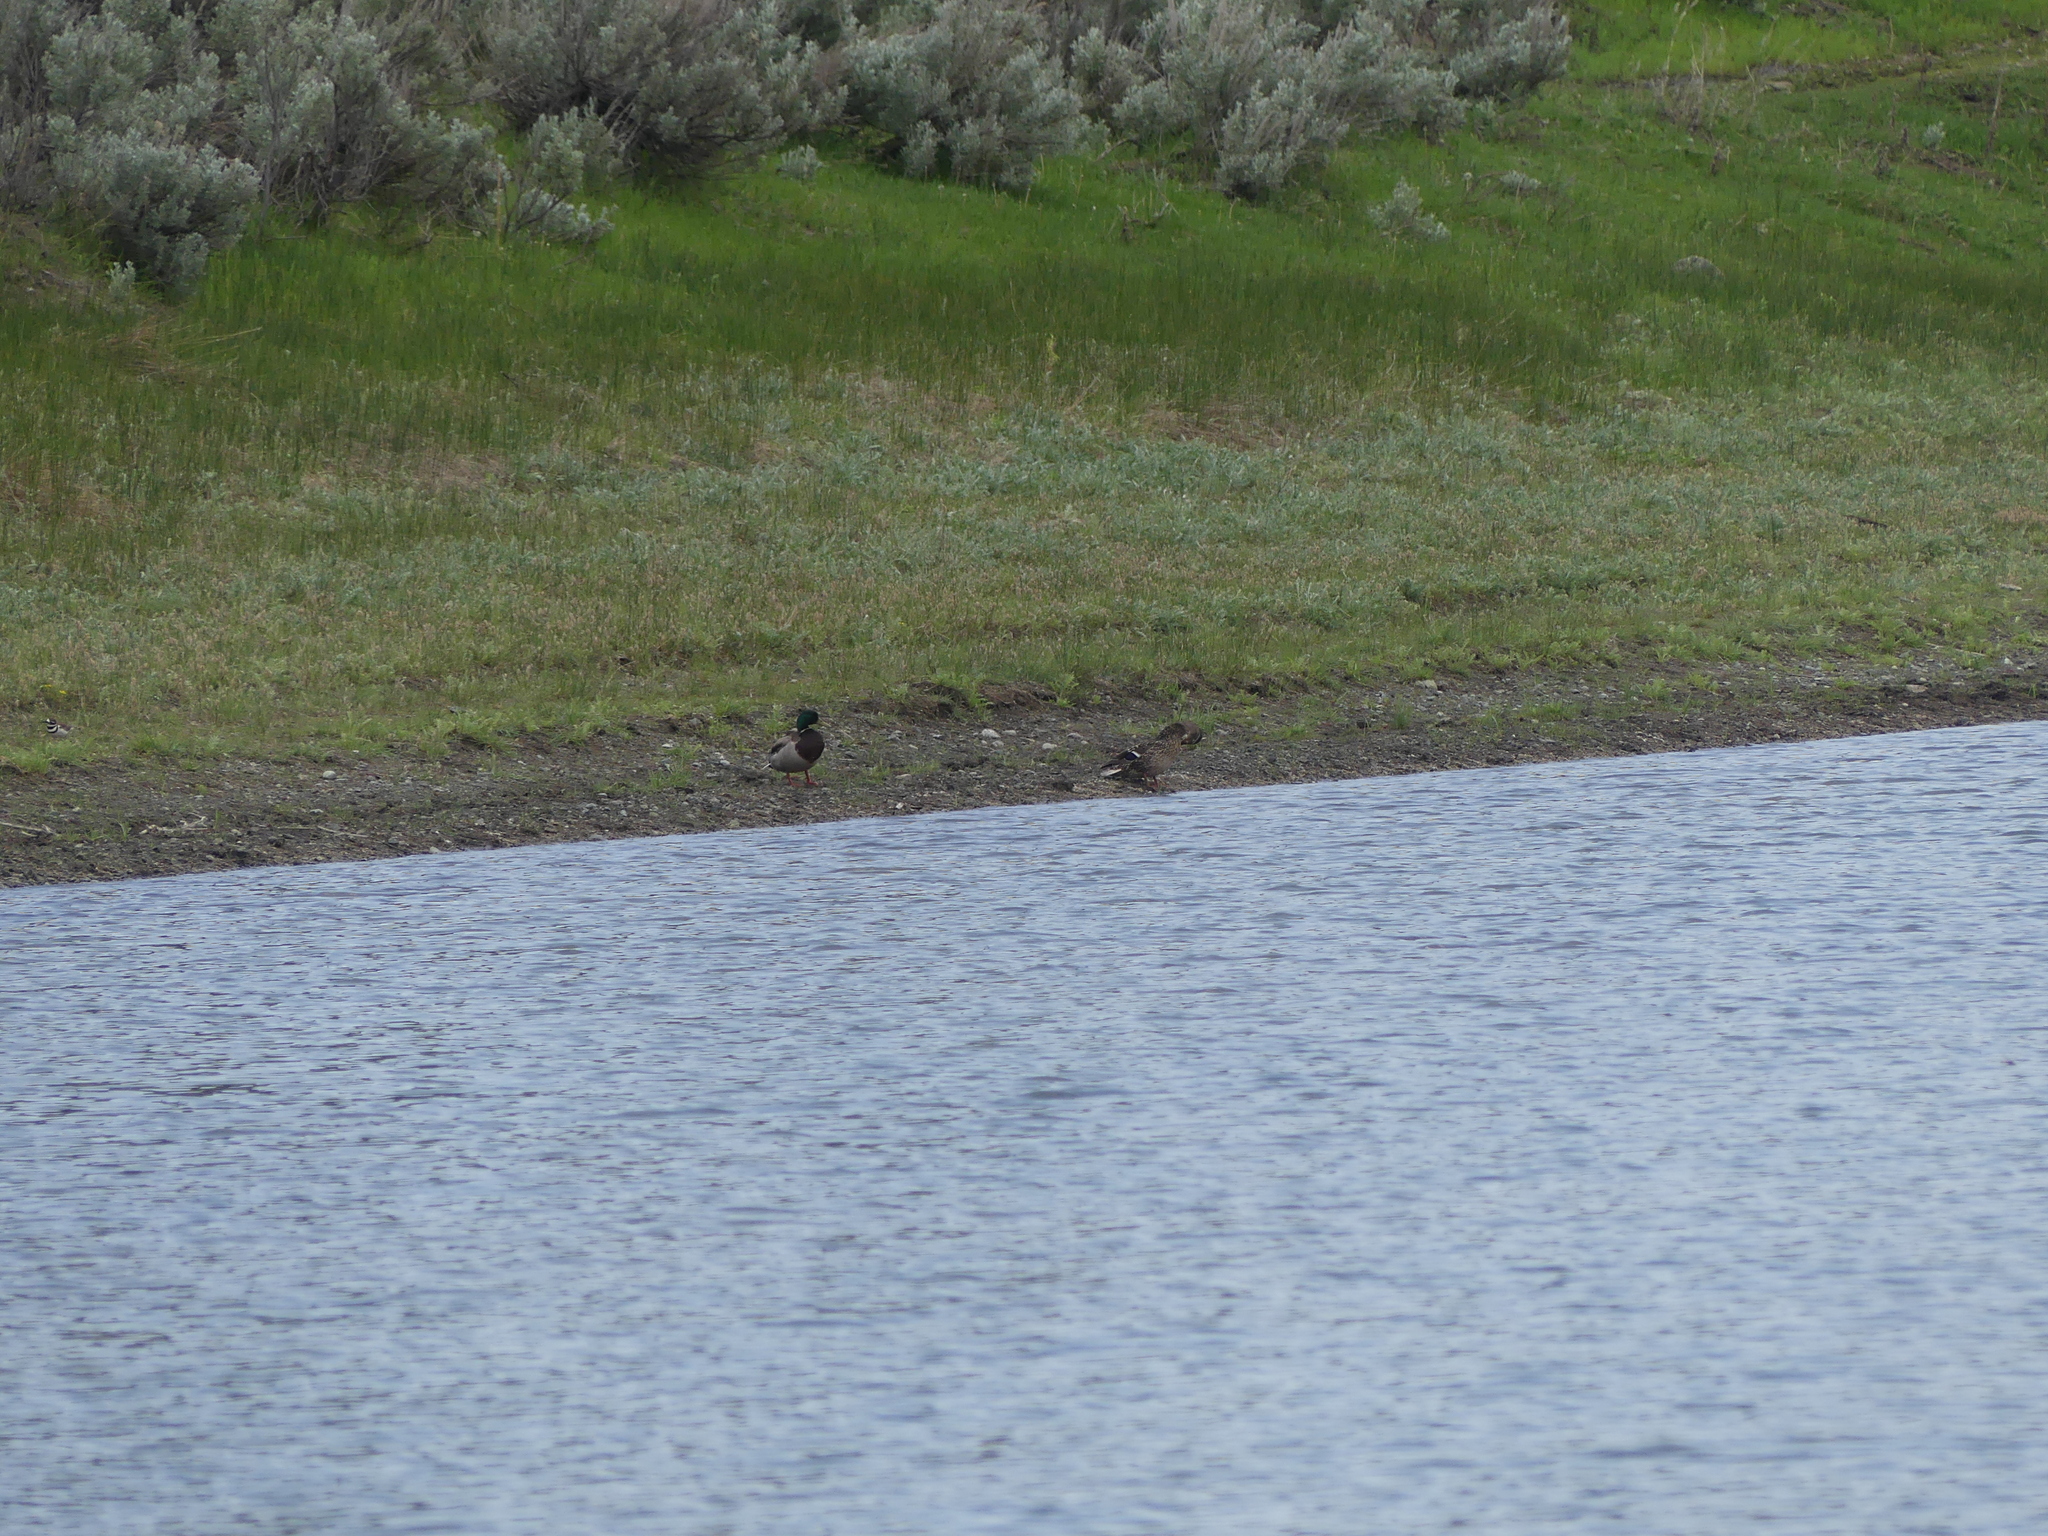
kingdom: Animalia
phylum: Chordata
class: Aves
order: Anseriformes
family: Anatidae
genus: Anas
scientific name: Anas platyrhynchos
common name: Mallard
